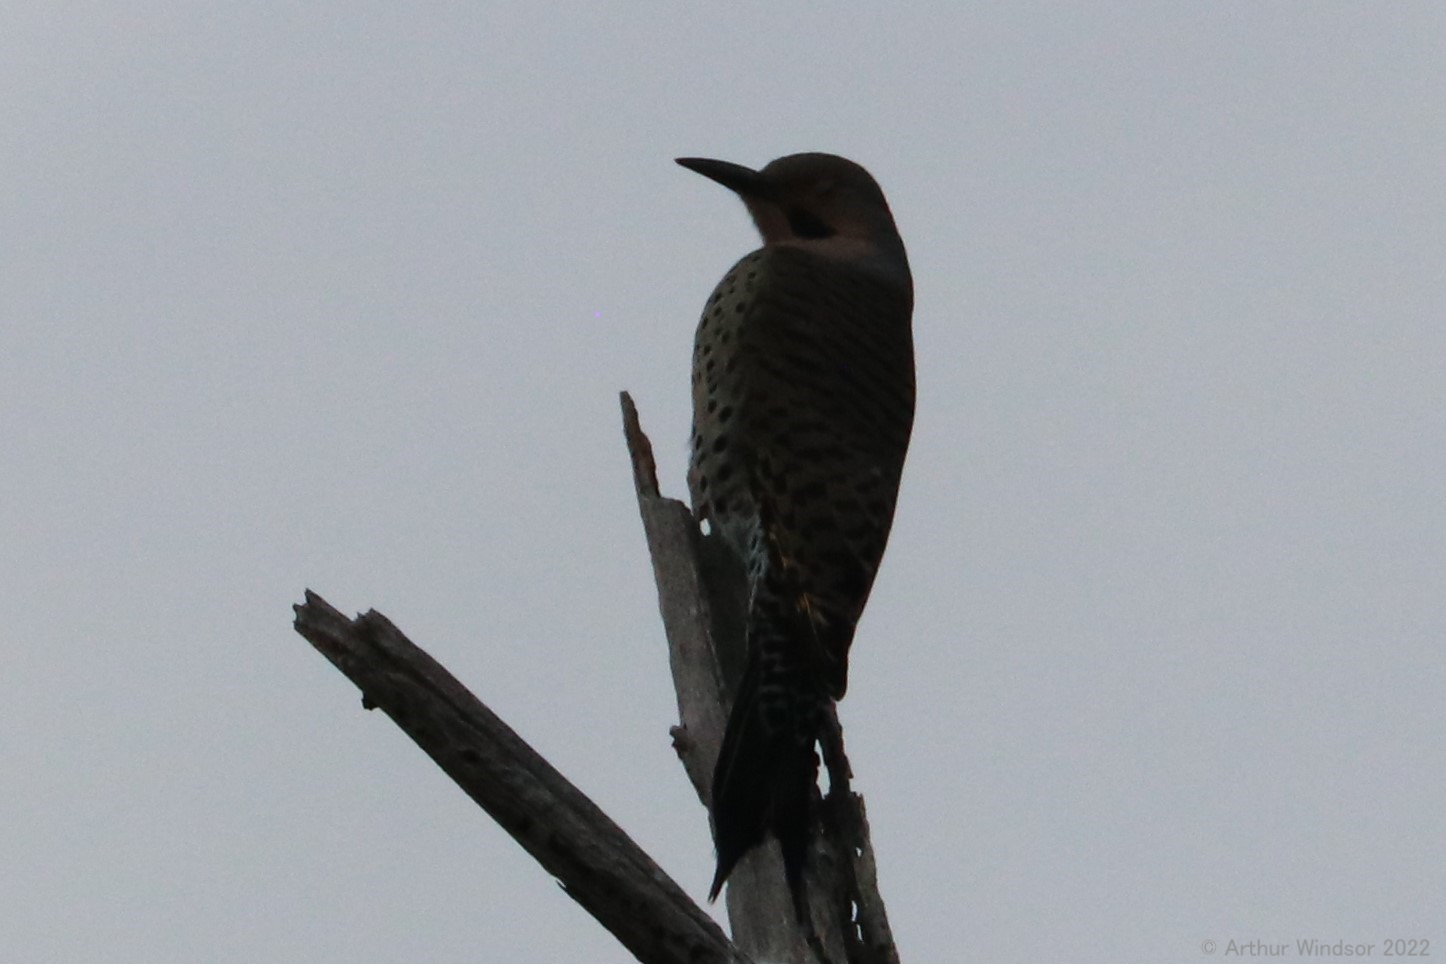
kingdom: Animalia
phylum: Chordata
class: Aves
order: Piciformes
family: Picidae
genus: Colaptes
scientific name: Colaptes auratus
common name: Northern flicker
